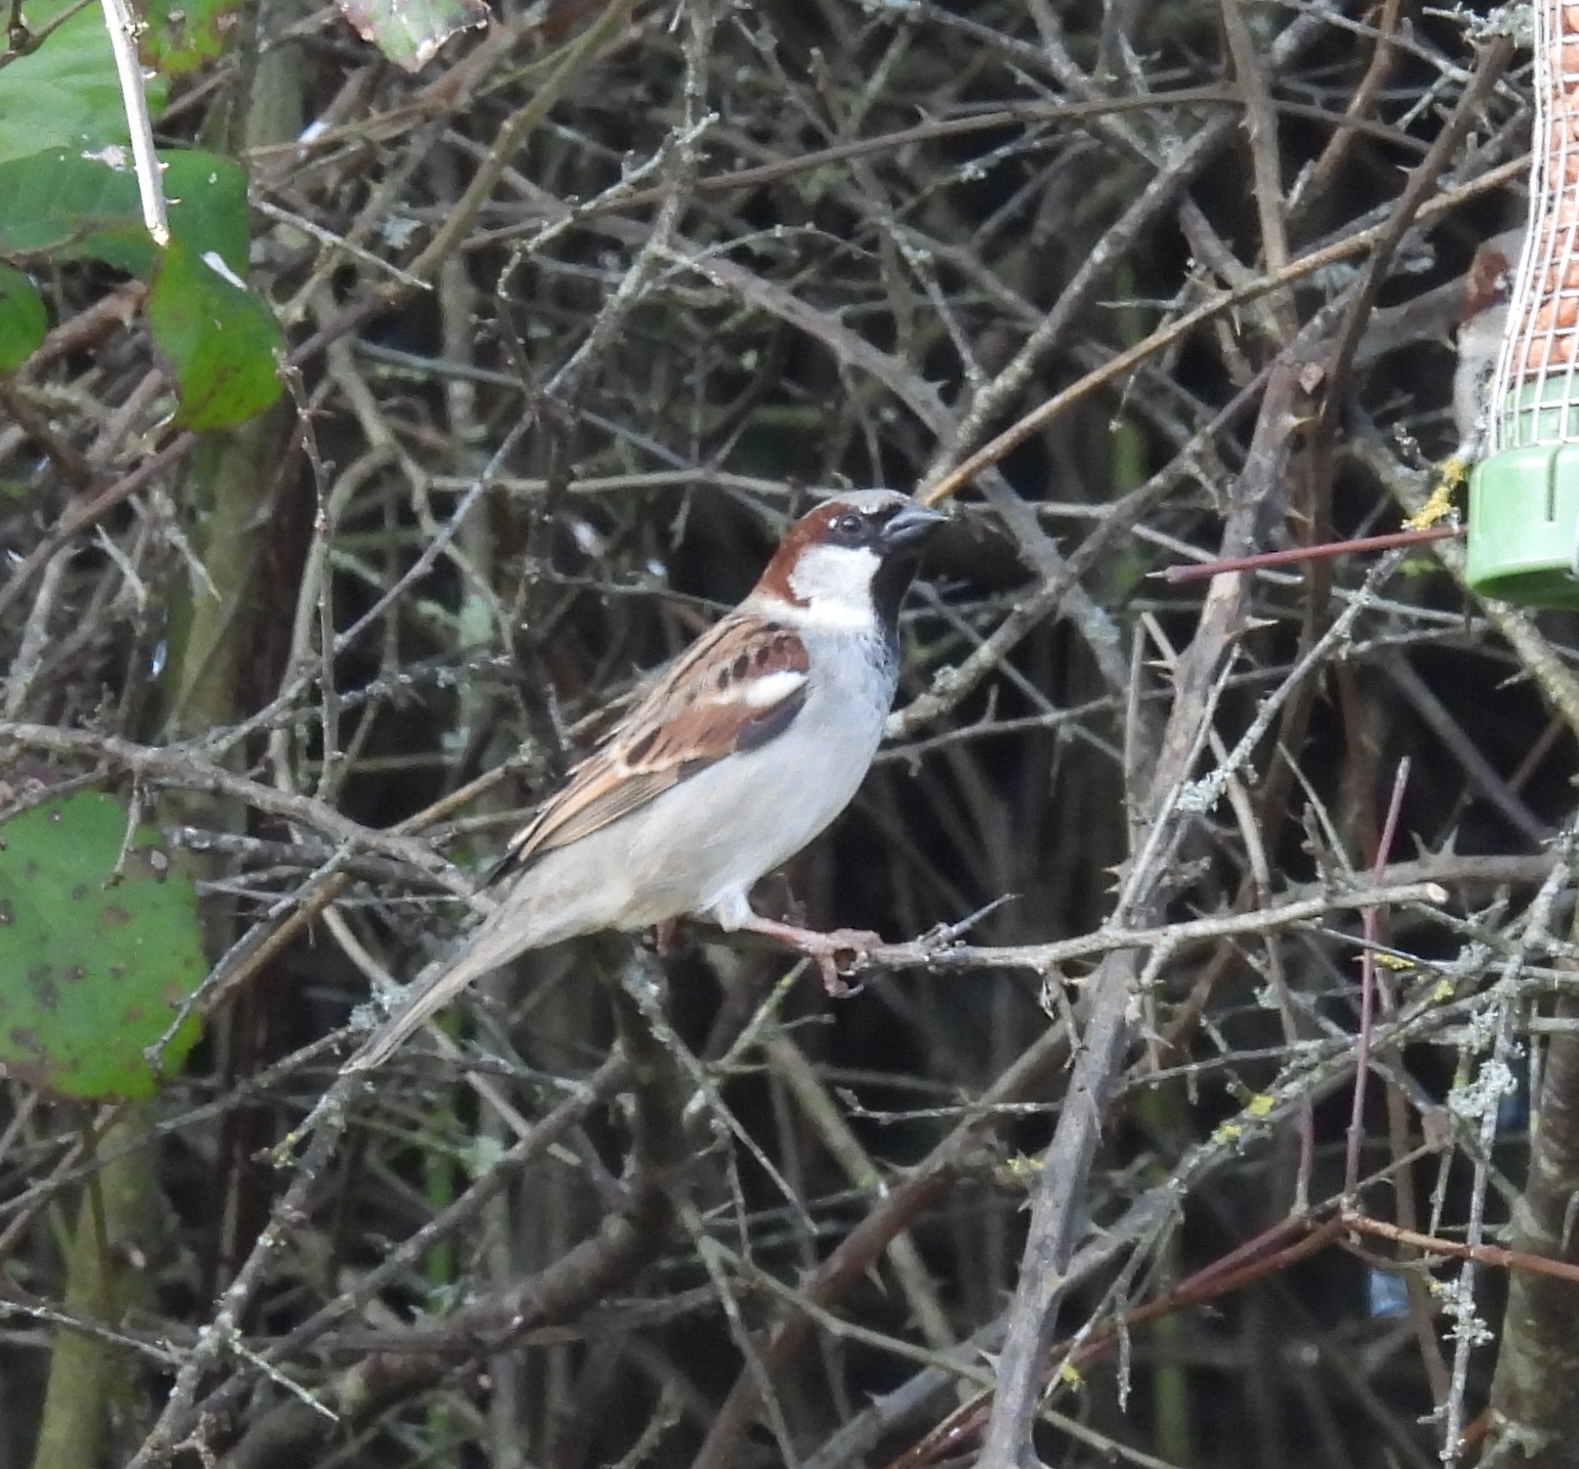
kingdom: Animalia
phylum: Chordata
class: Aves
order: Passeriformes
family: Passeridae
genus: Passer
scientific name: Passer domesticus
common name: House sparrow
